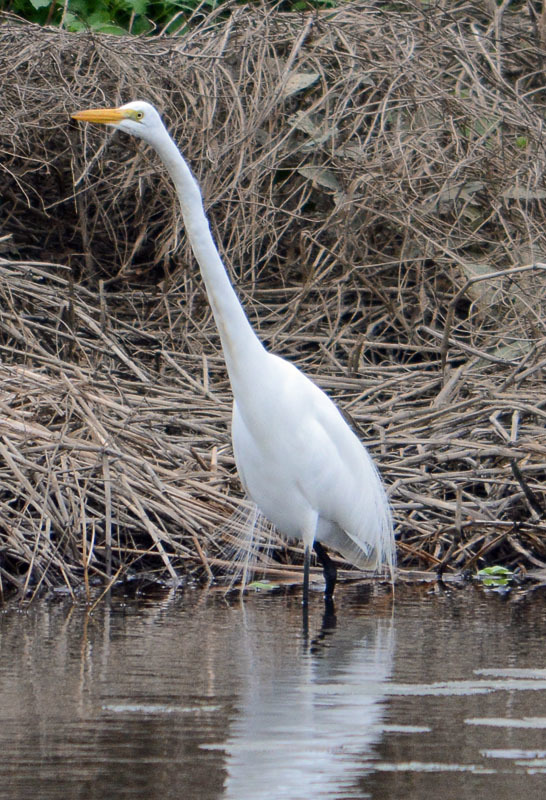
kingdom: Animalia
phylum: Chordata
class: Aves
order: Pelecaniformes
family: Ardeidae
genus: Ardea
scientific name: Ardea alba
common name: Great egret
